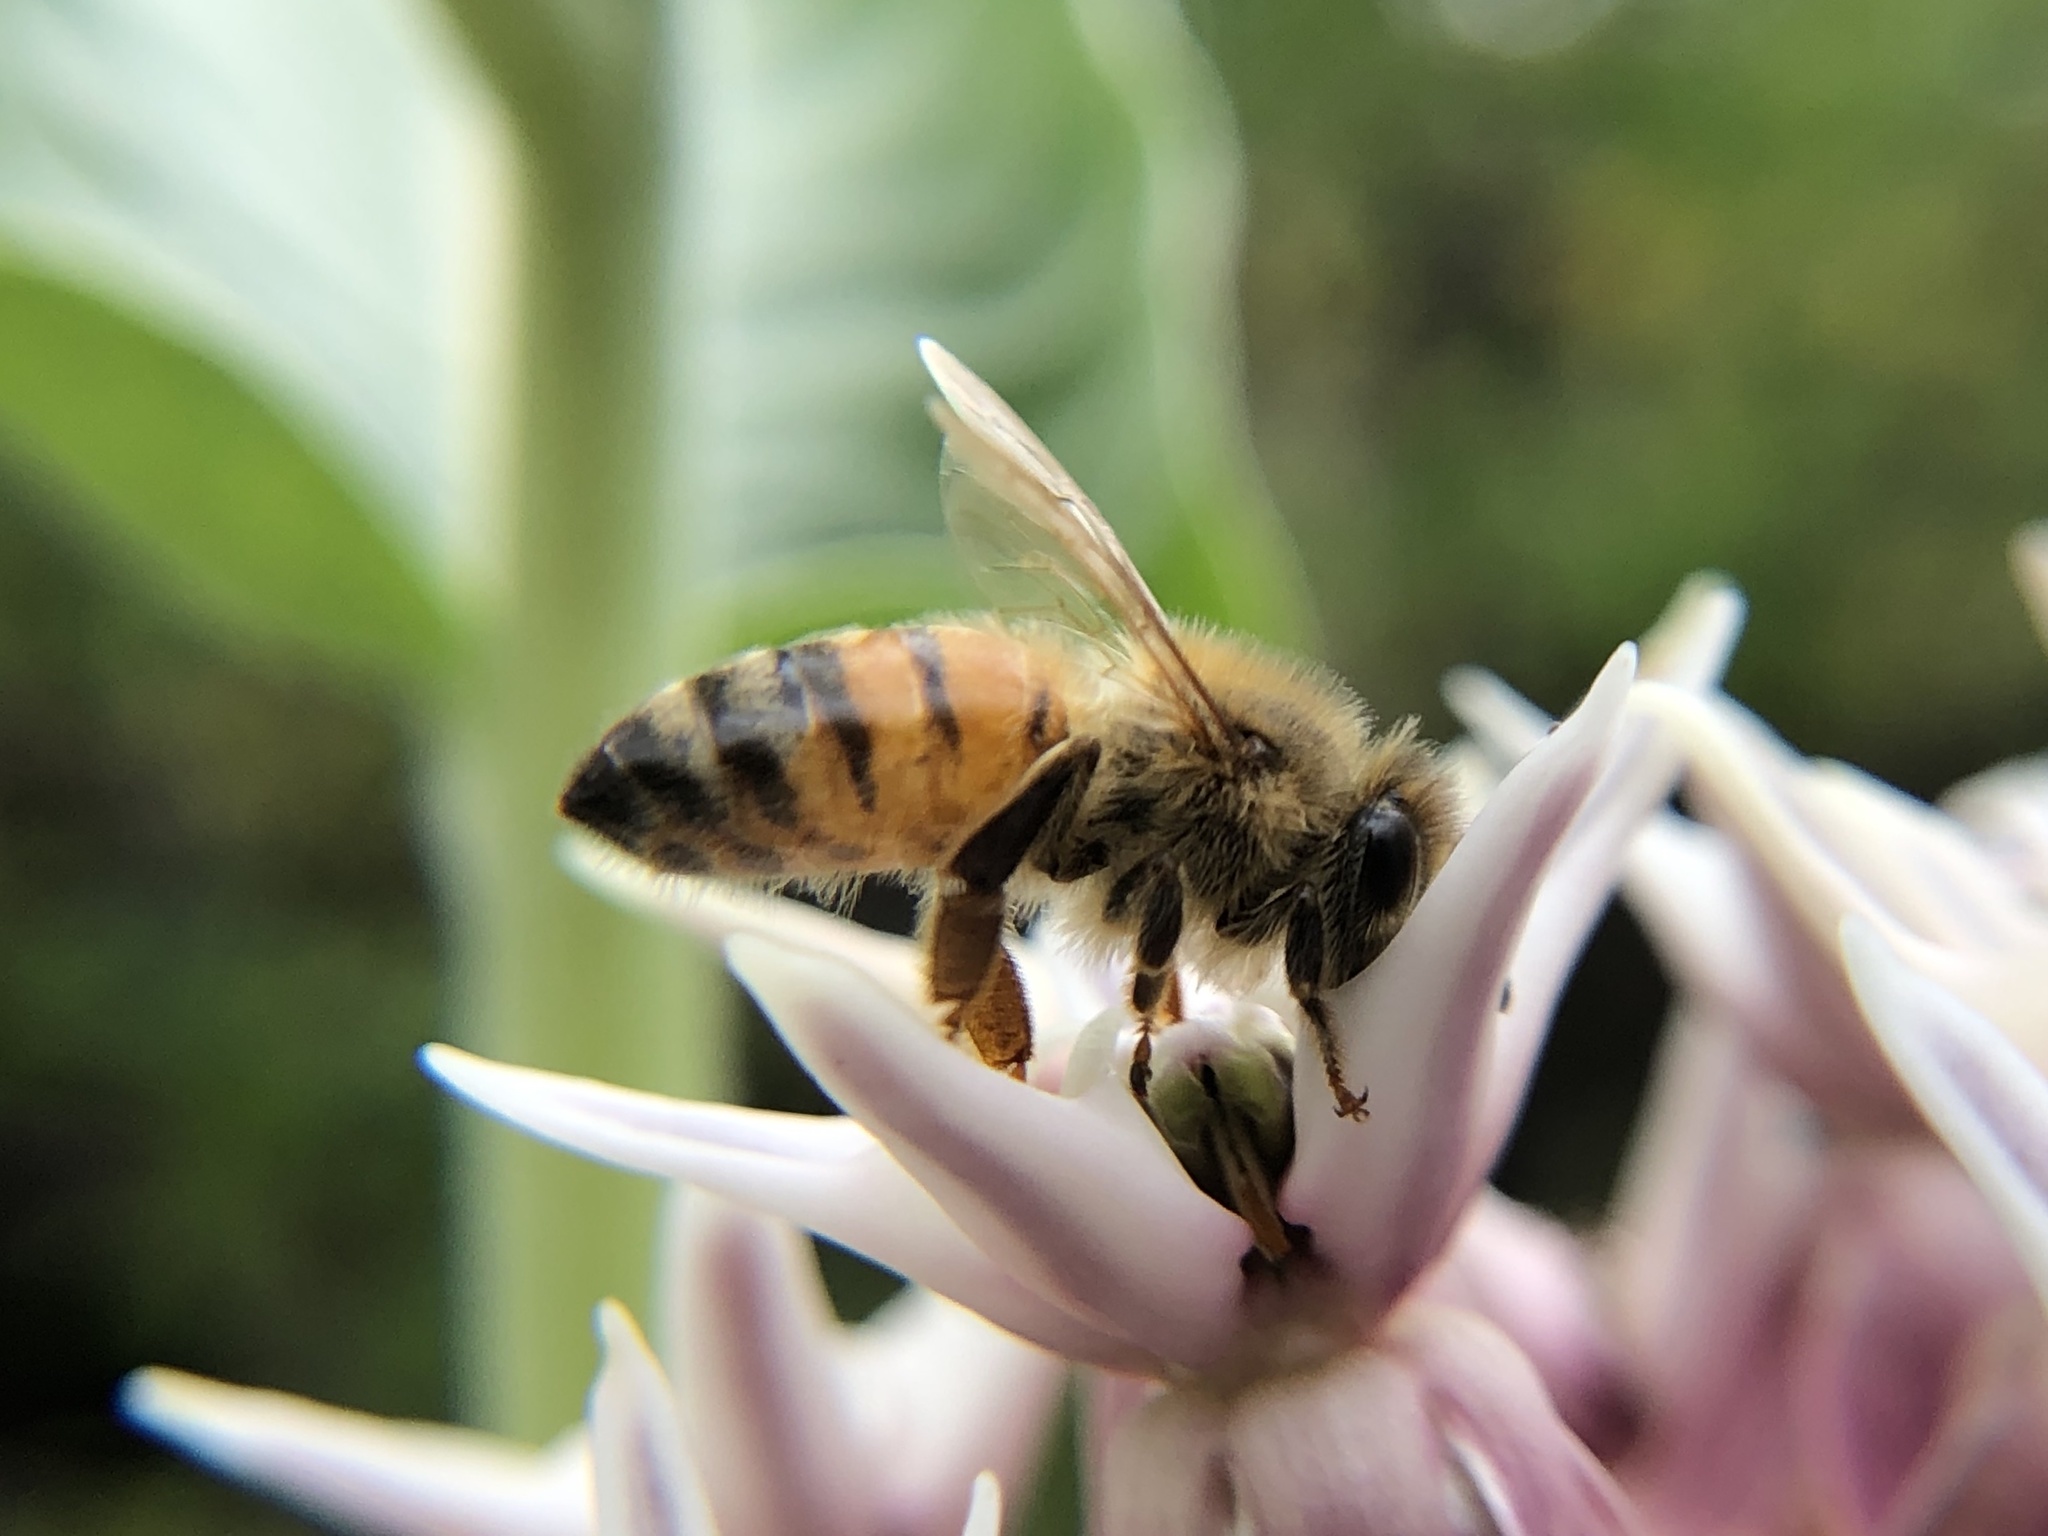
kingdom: Animalia
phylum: Arthropoda
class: Insecta
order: Hymenoptera
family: Apidae
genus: Apis
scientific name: Apis mellifera
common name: Honey bee
